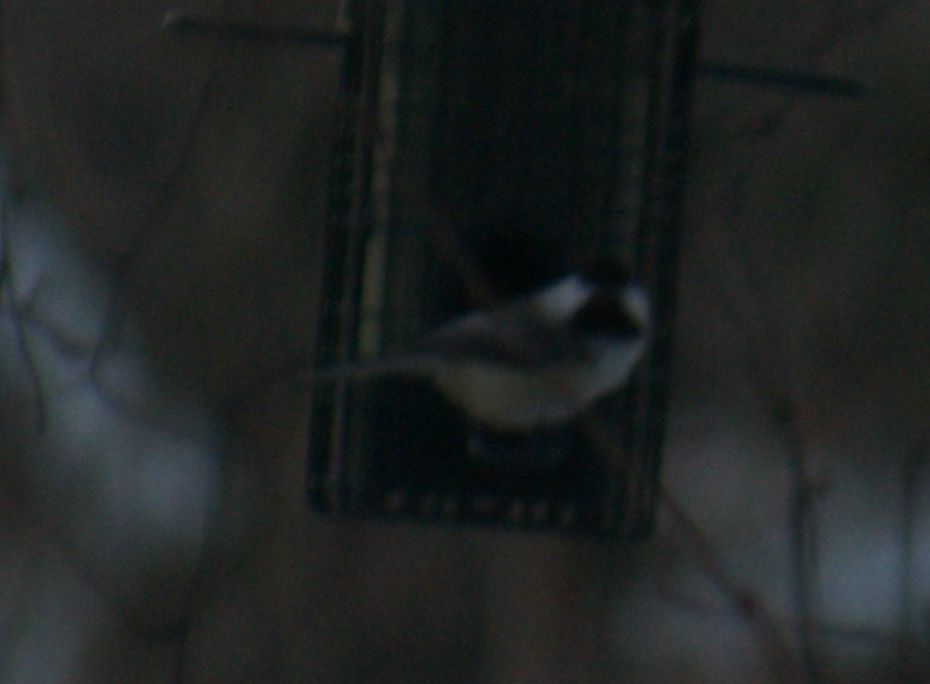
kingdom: Animalia
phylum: Chordata
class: Aves
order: Passeriformes
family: Paridae
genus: Poecile
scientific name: Poecile atricapillus
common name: Black-capped chickadee
